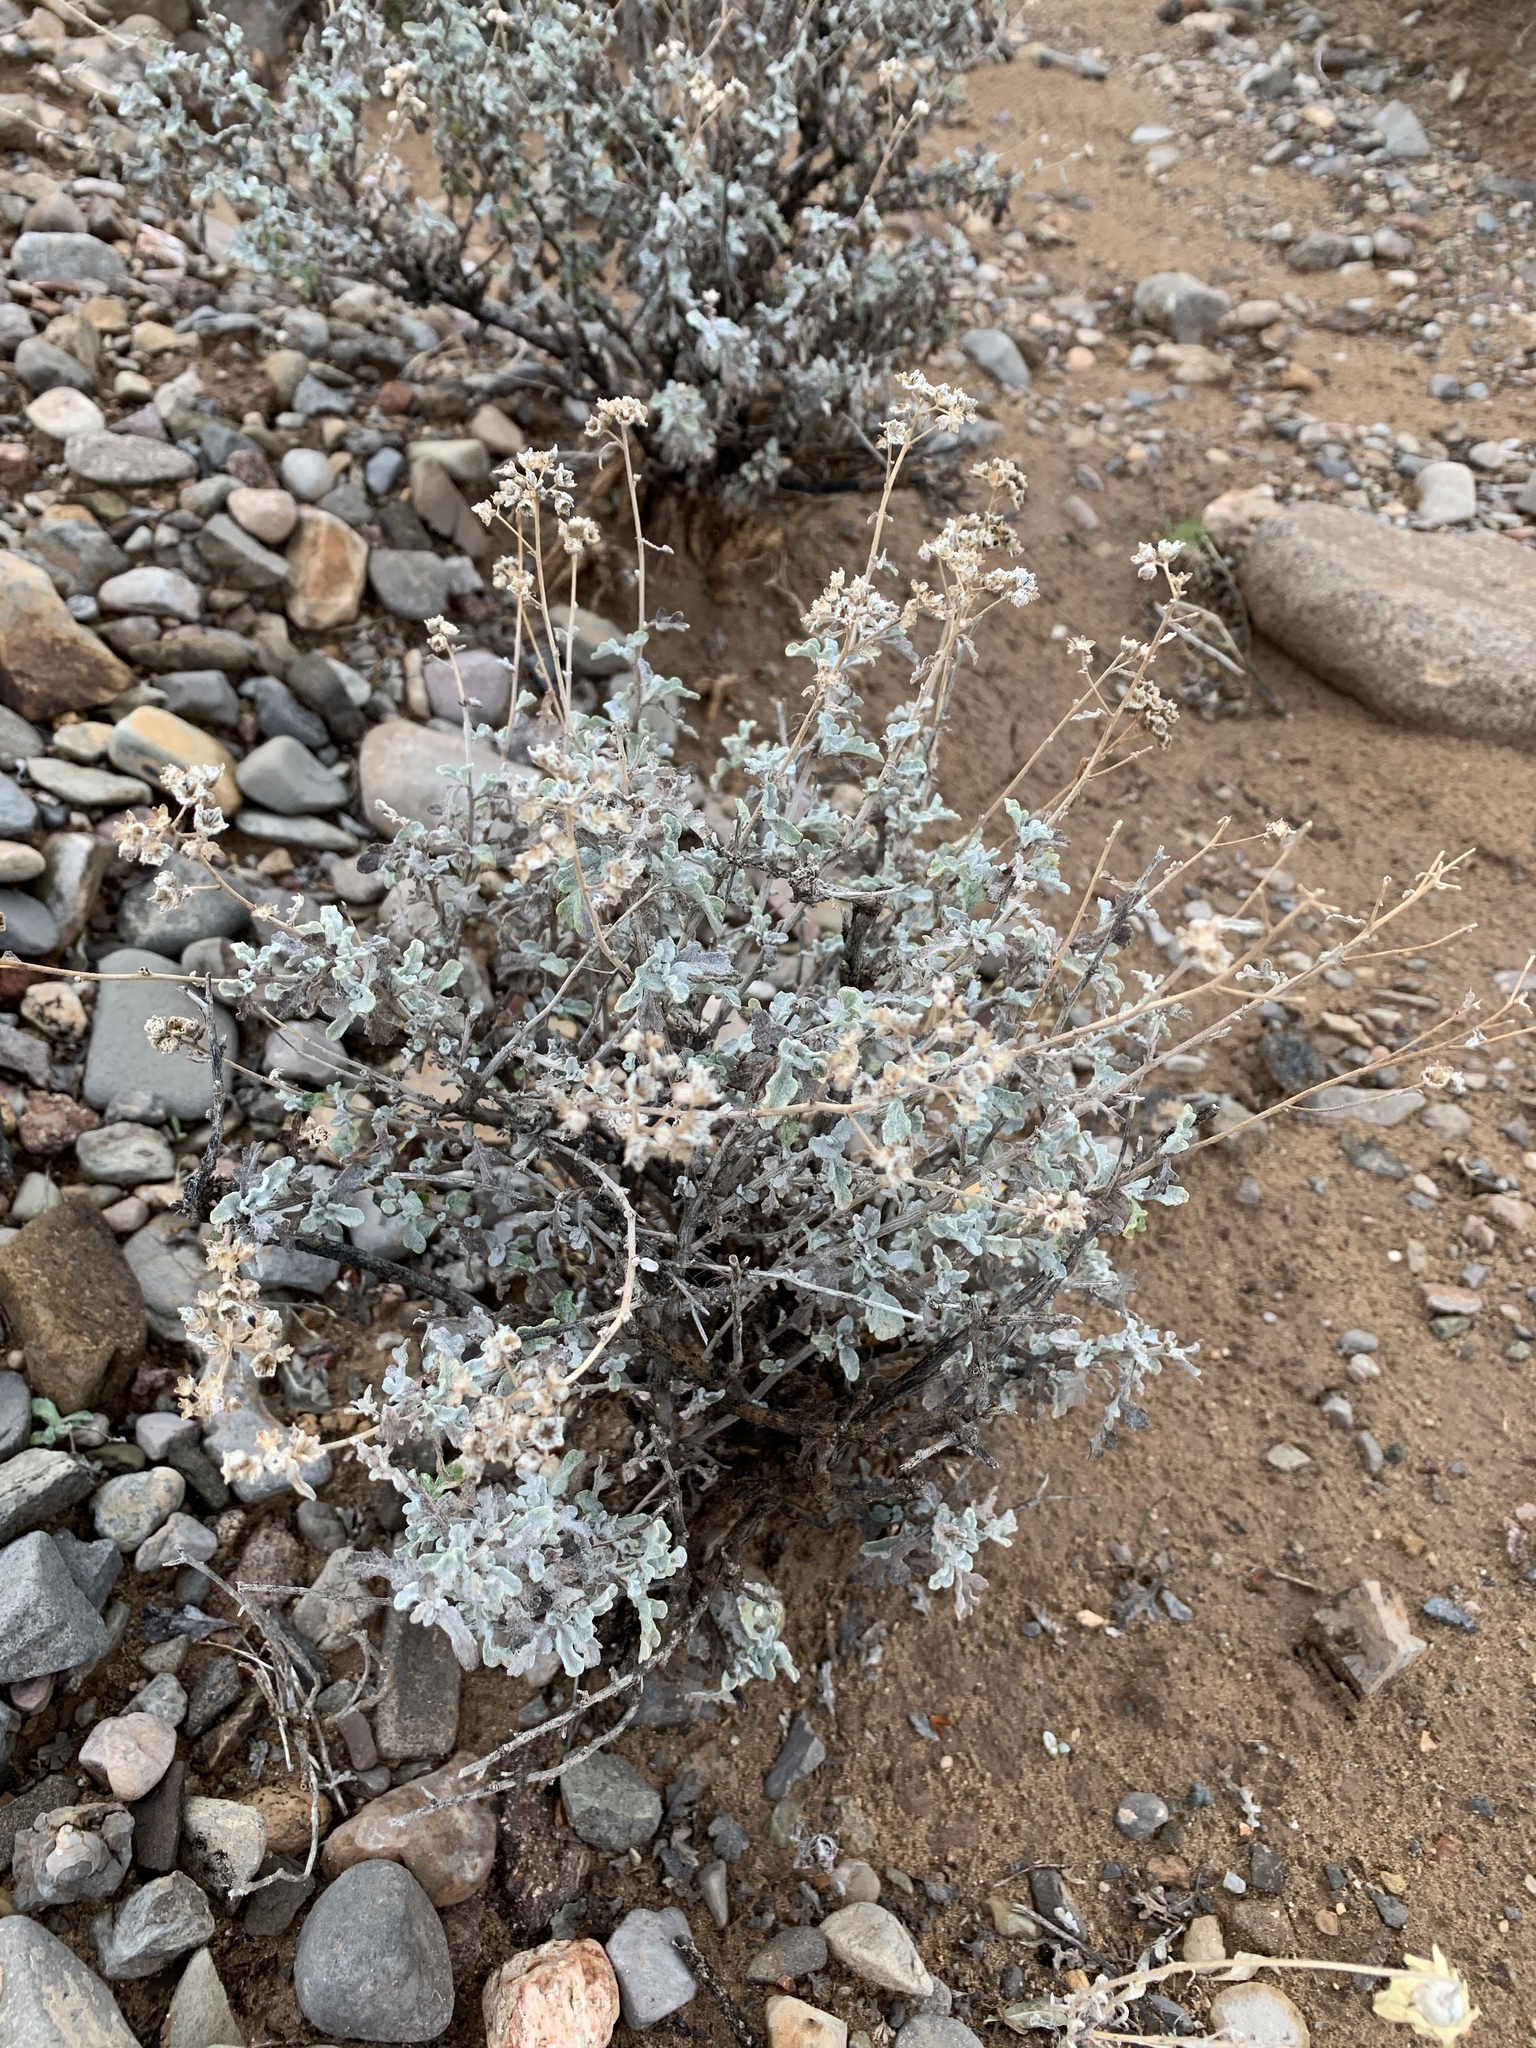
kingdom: Plantae
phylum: Tracheophyta
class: Magnoliopsida
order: Asterales
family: Asteraceae
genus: Parthenium
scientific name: Parthenium incanum
